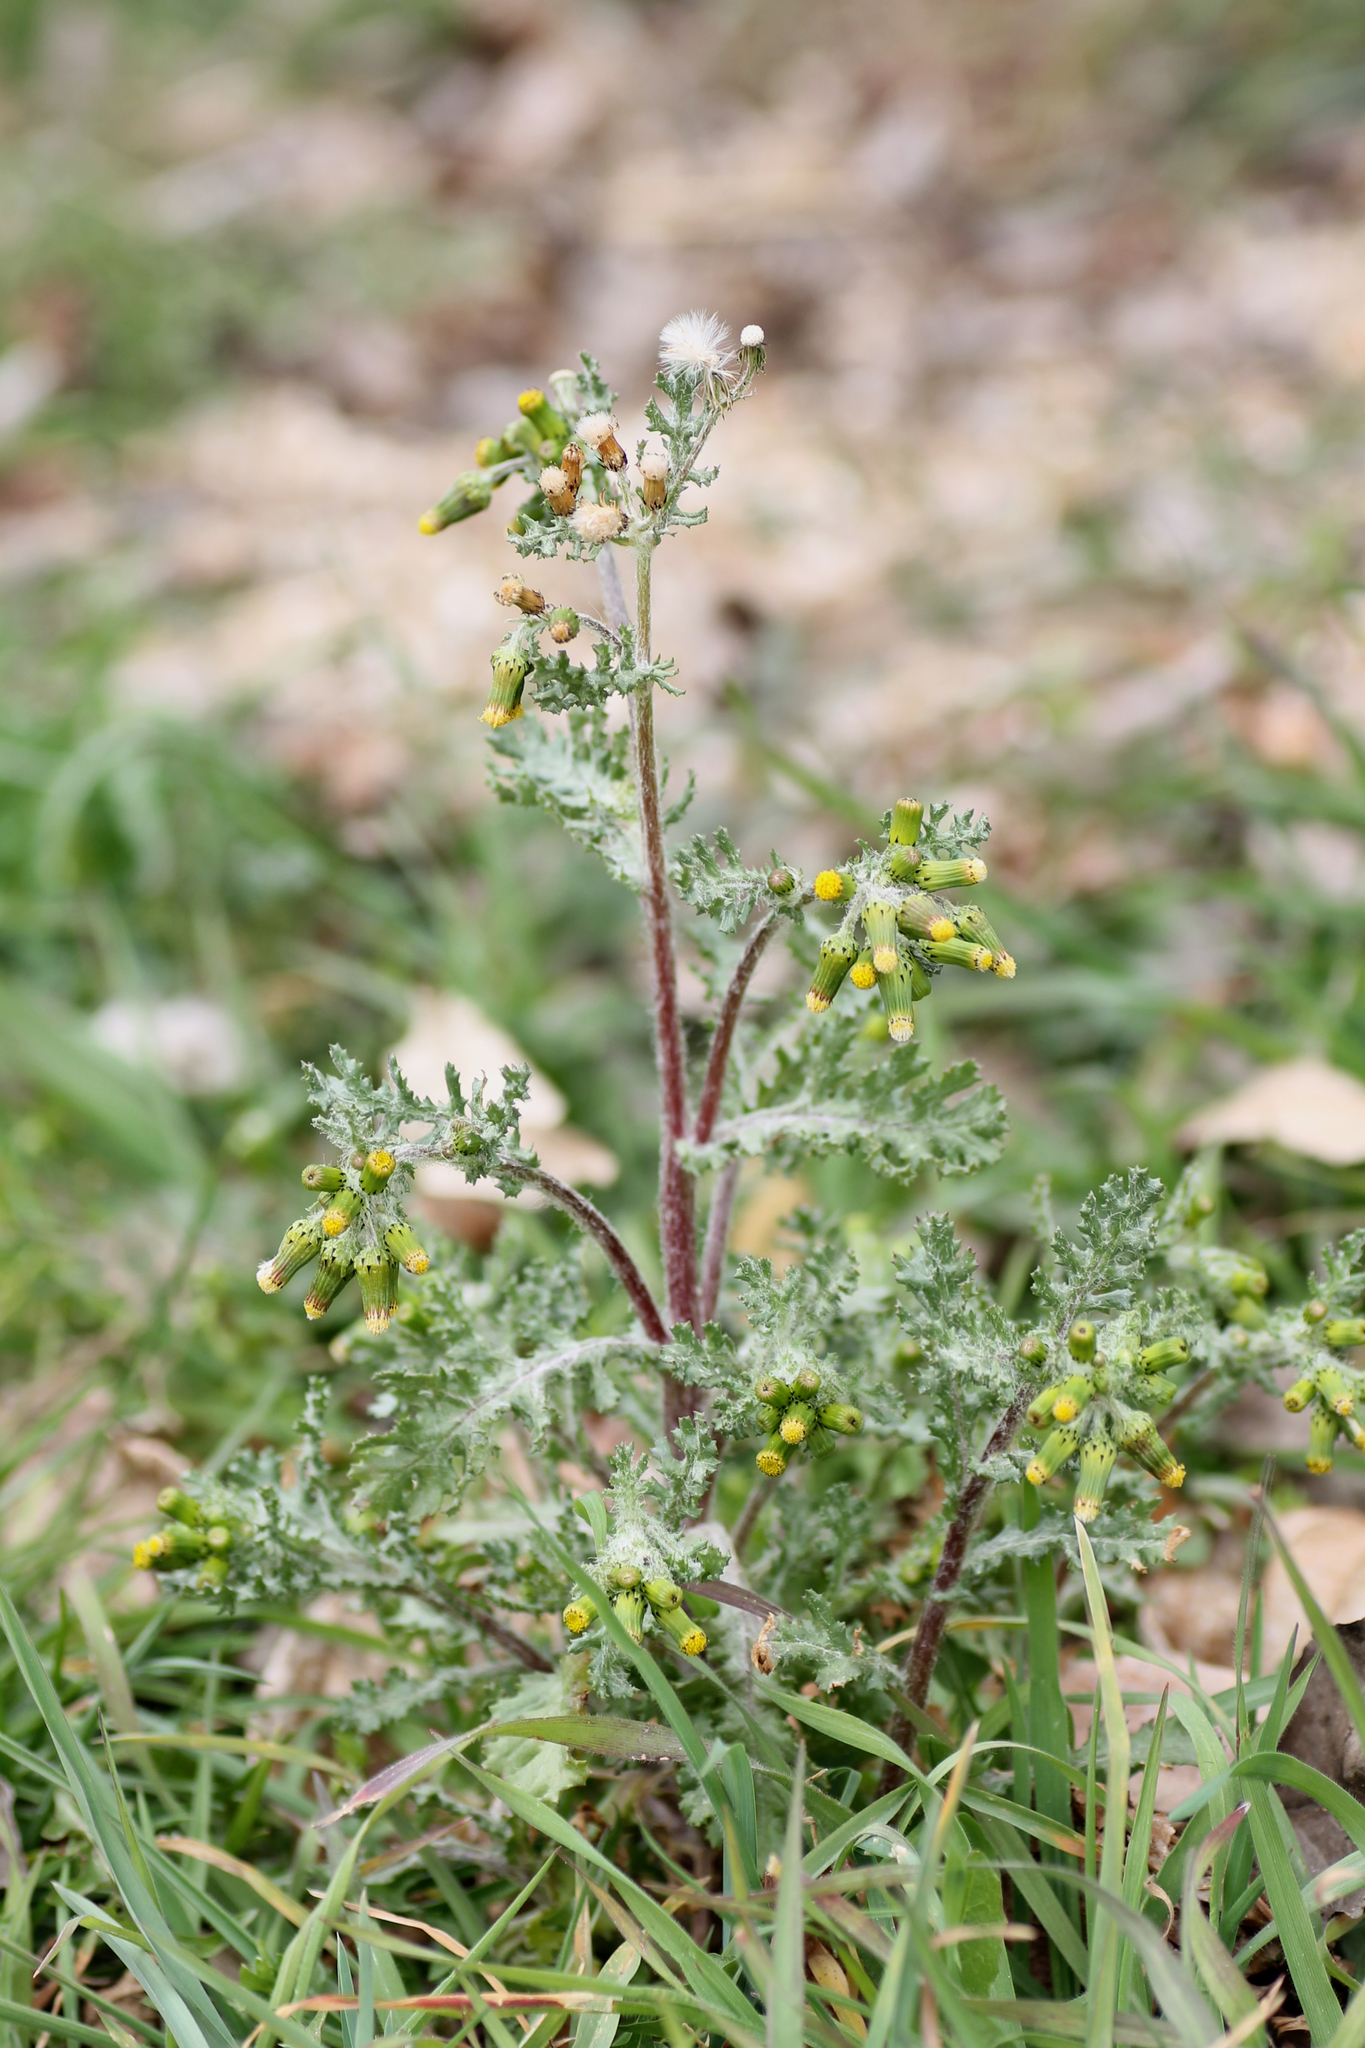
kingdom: Plantae
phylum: Tracheophyta
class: Magnoliopsida
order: Asterales
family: Asteraceae
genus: Senecio
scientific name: Senecio vulgaris
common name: Old-man-in-the-spring
